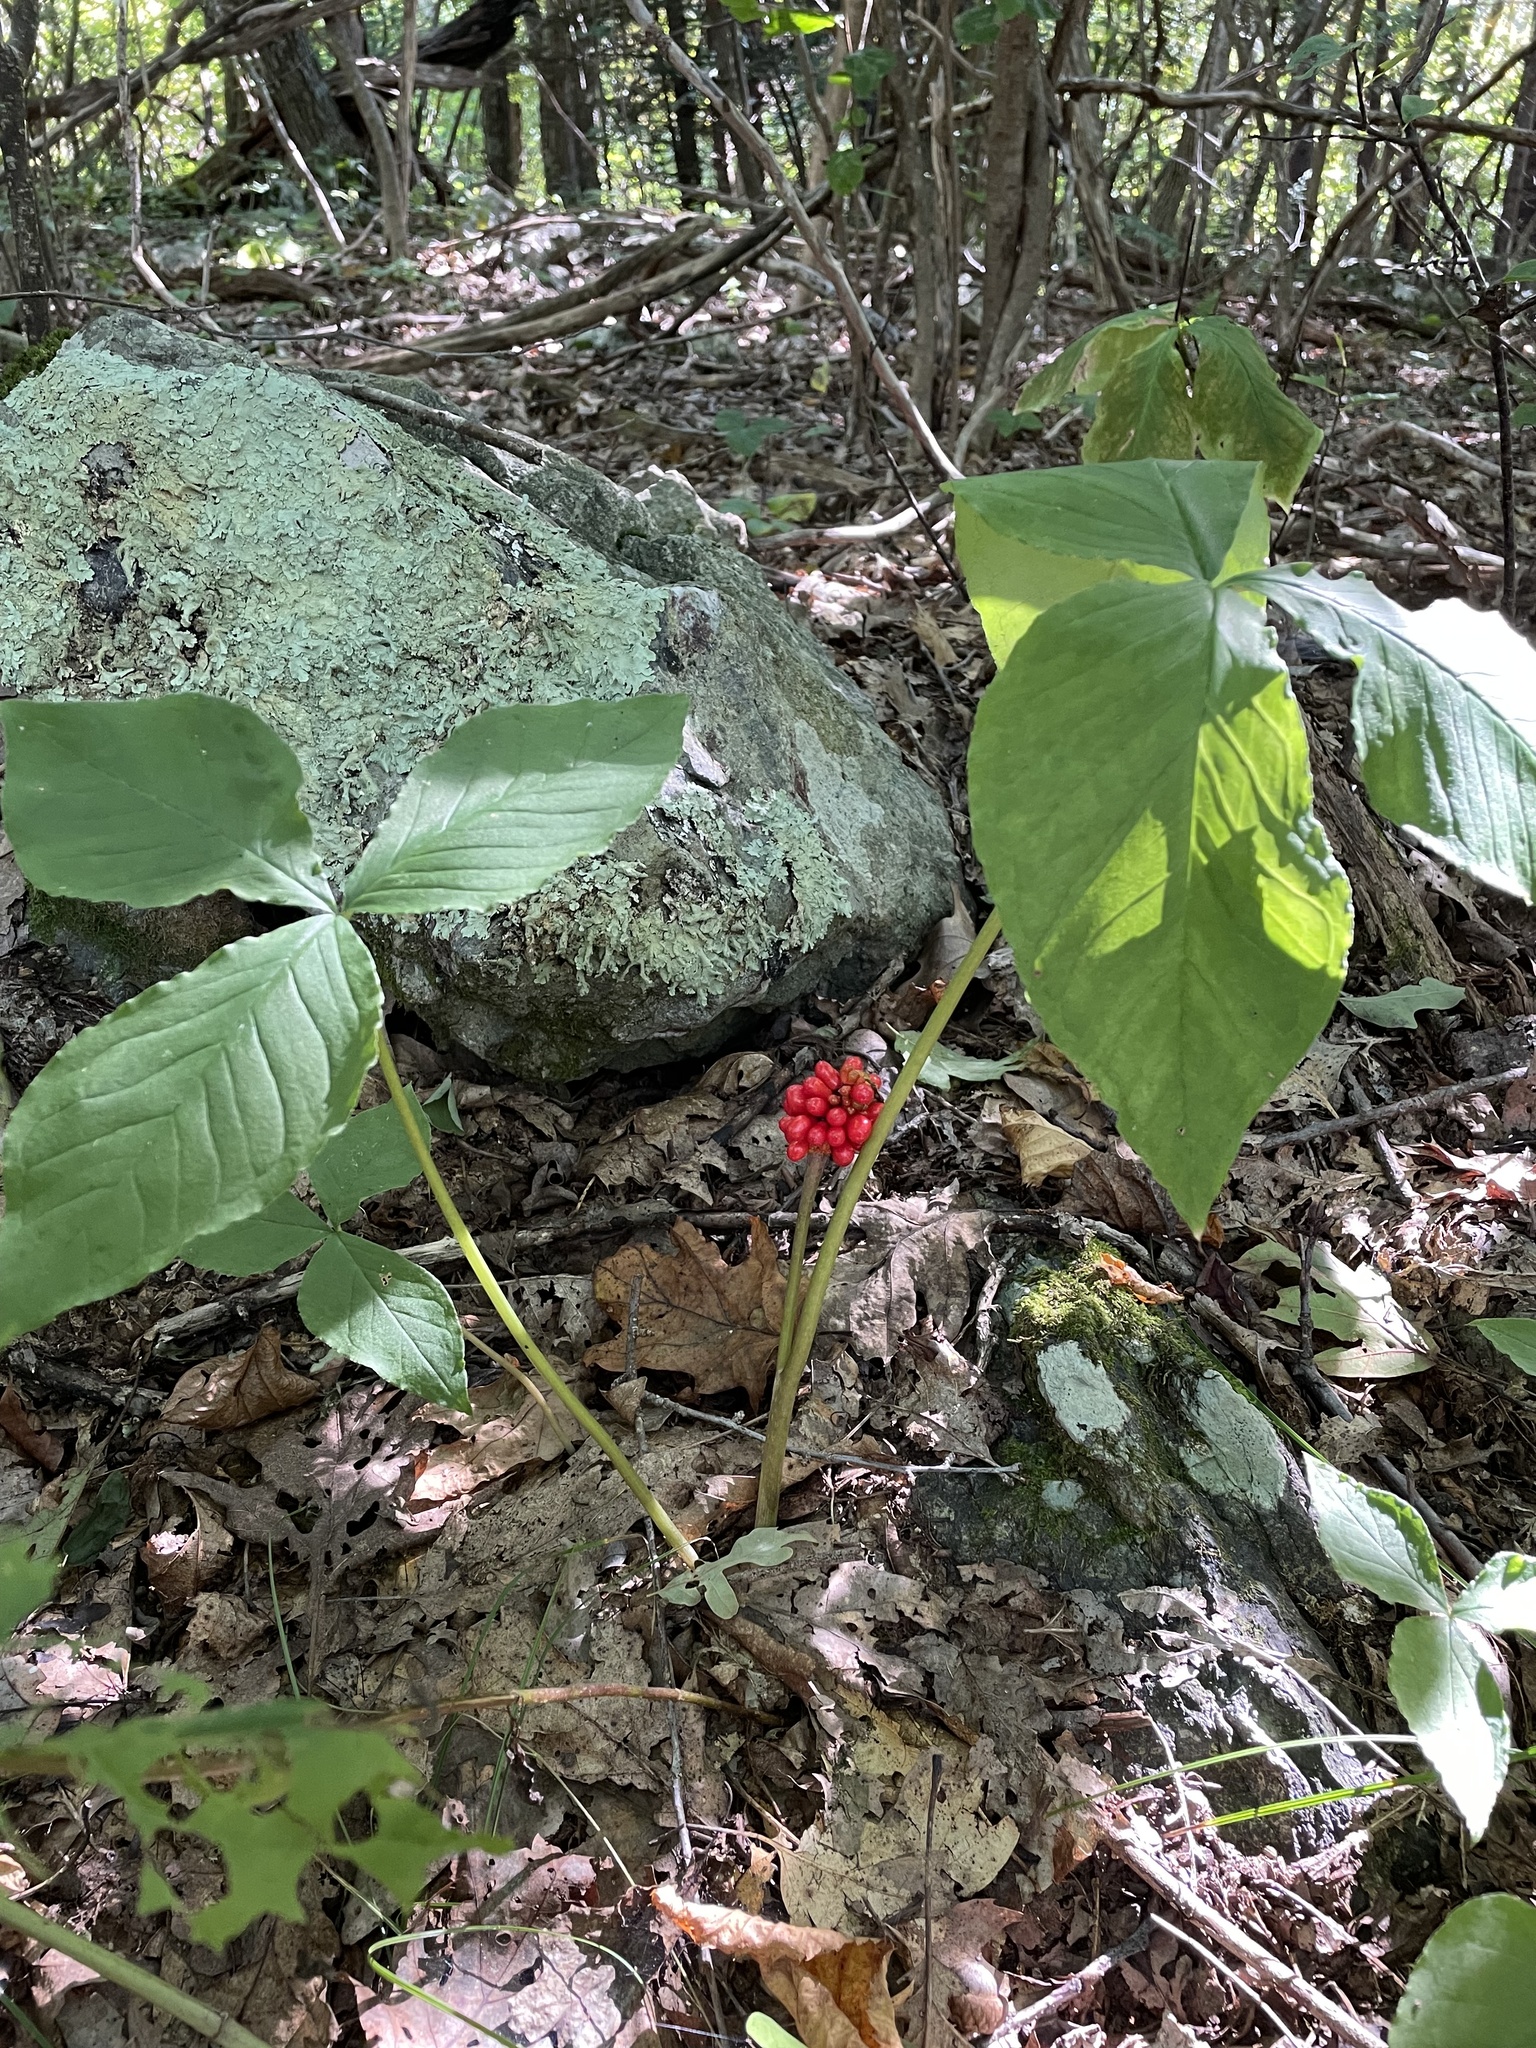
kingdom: Plantae
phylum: Tracheophyta
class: Liliopsida
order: Alismatales
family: Araceae
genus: Arisaema
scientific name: Arisaema triphyllum
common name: Jack-in-the-pulpit
